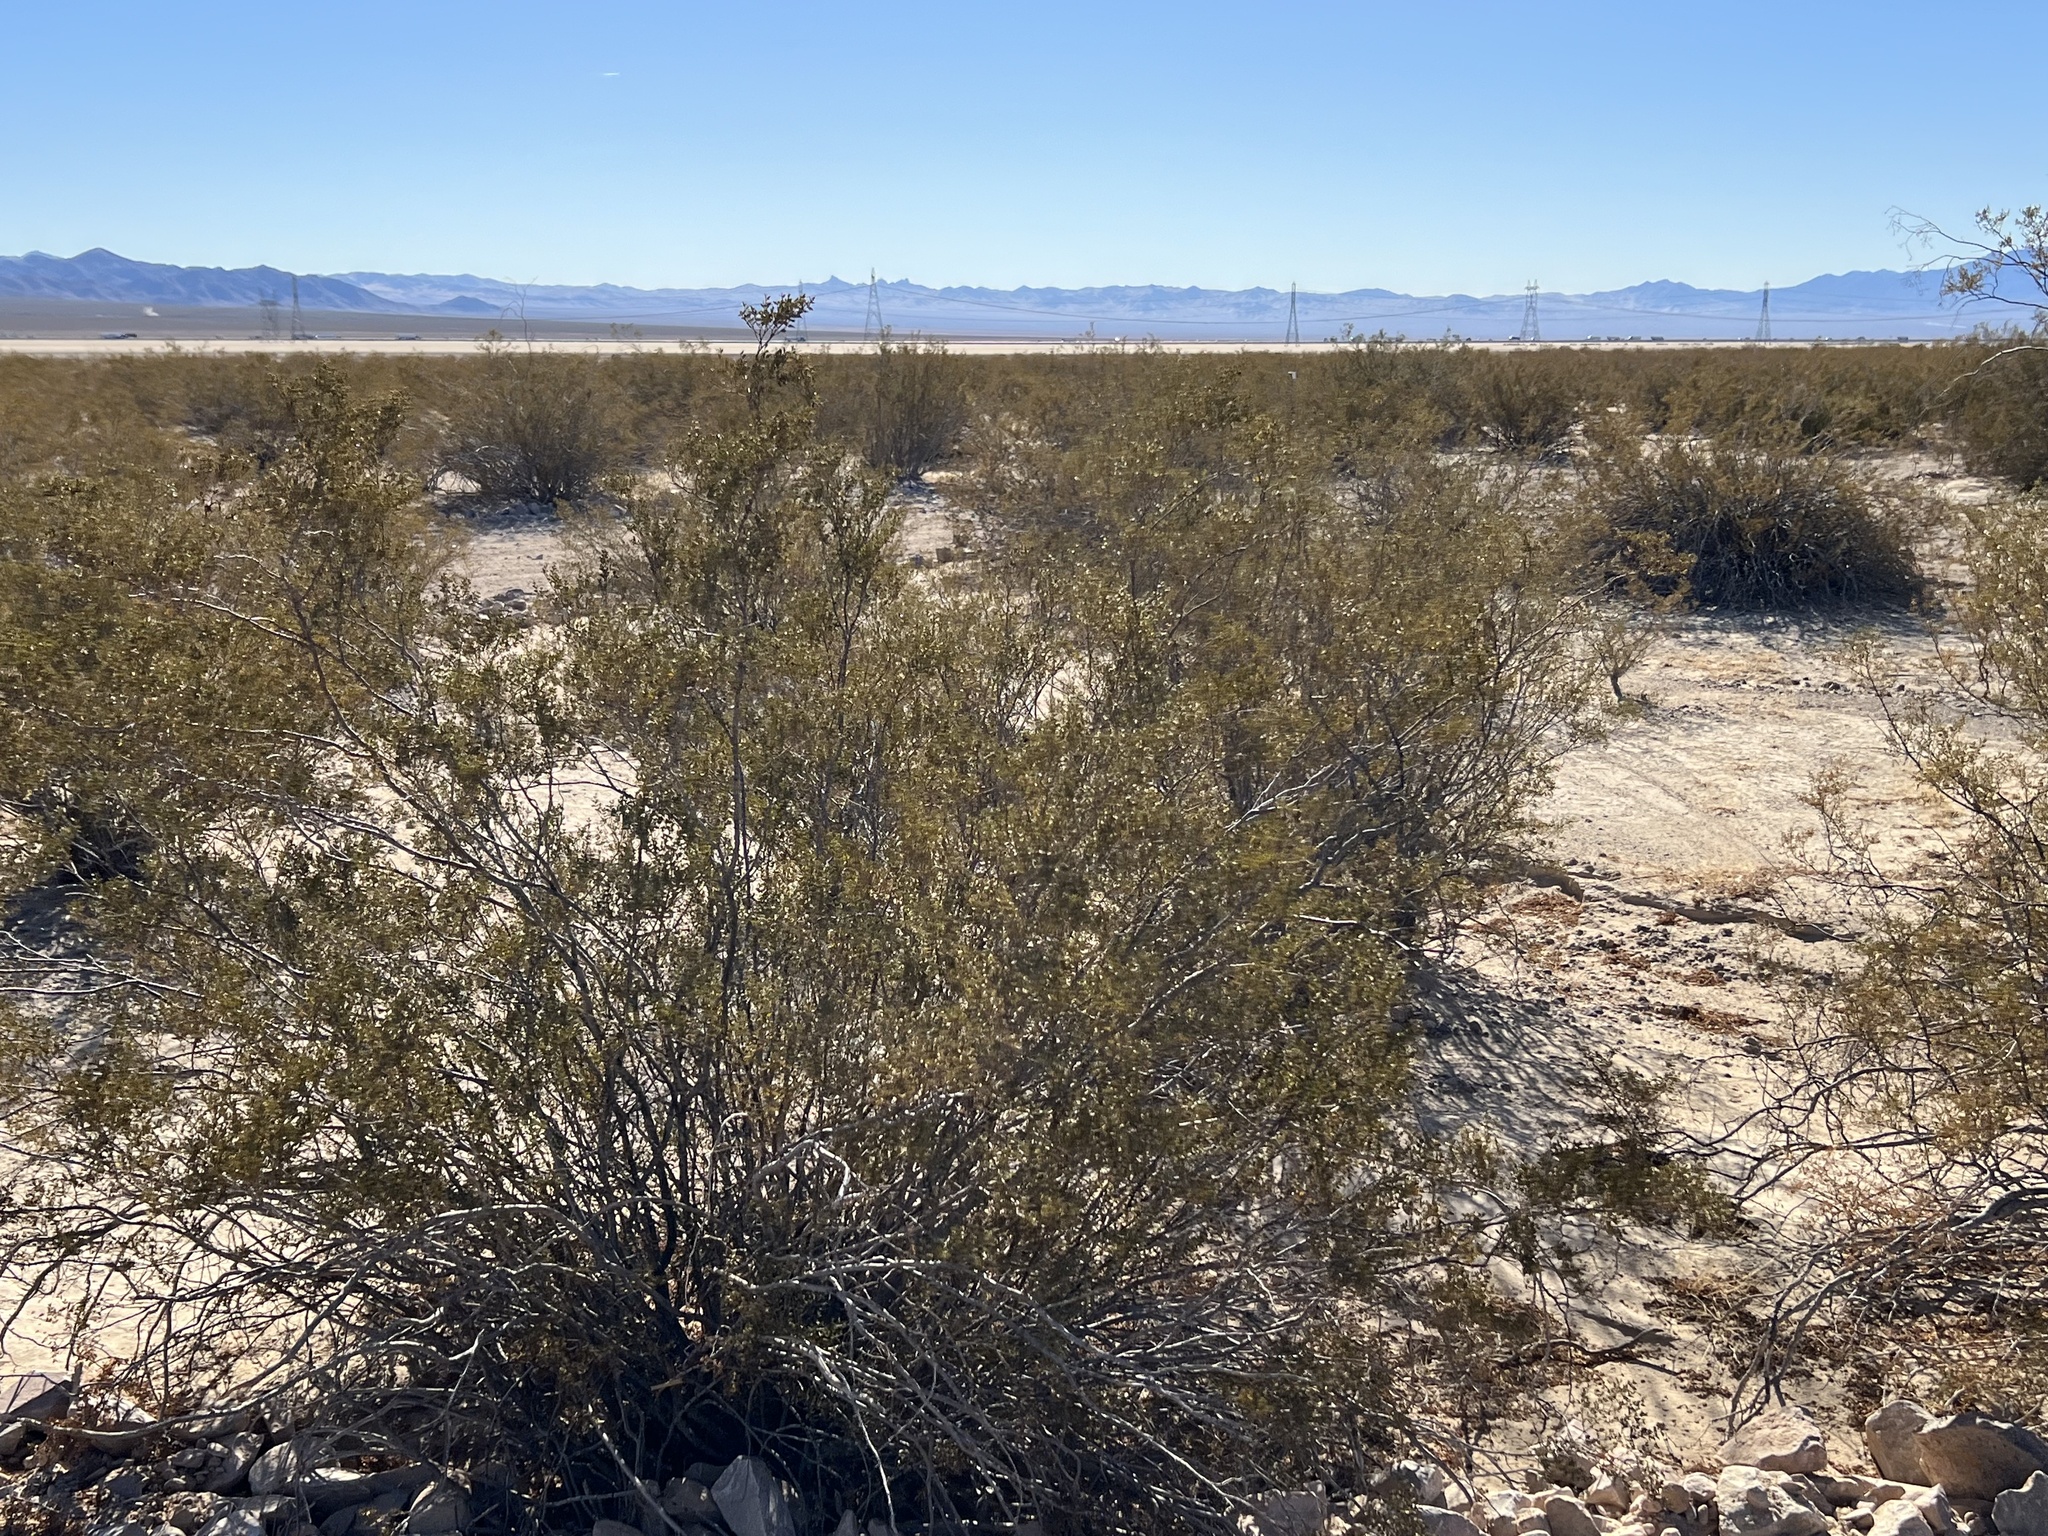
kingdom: Plantae
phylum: Tracheophyta
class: Magnoliopsida
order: Zygophyllales
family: Zygophyllaceae
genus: Larrea
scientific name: Larrea tridentata
